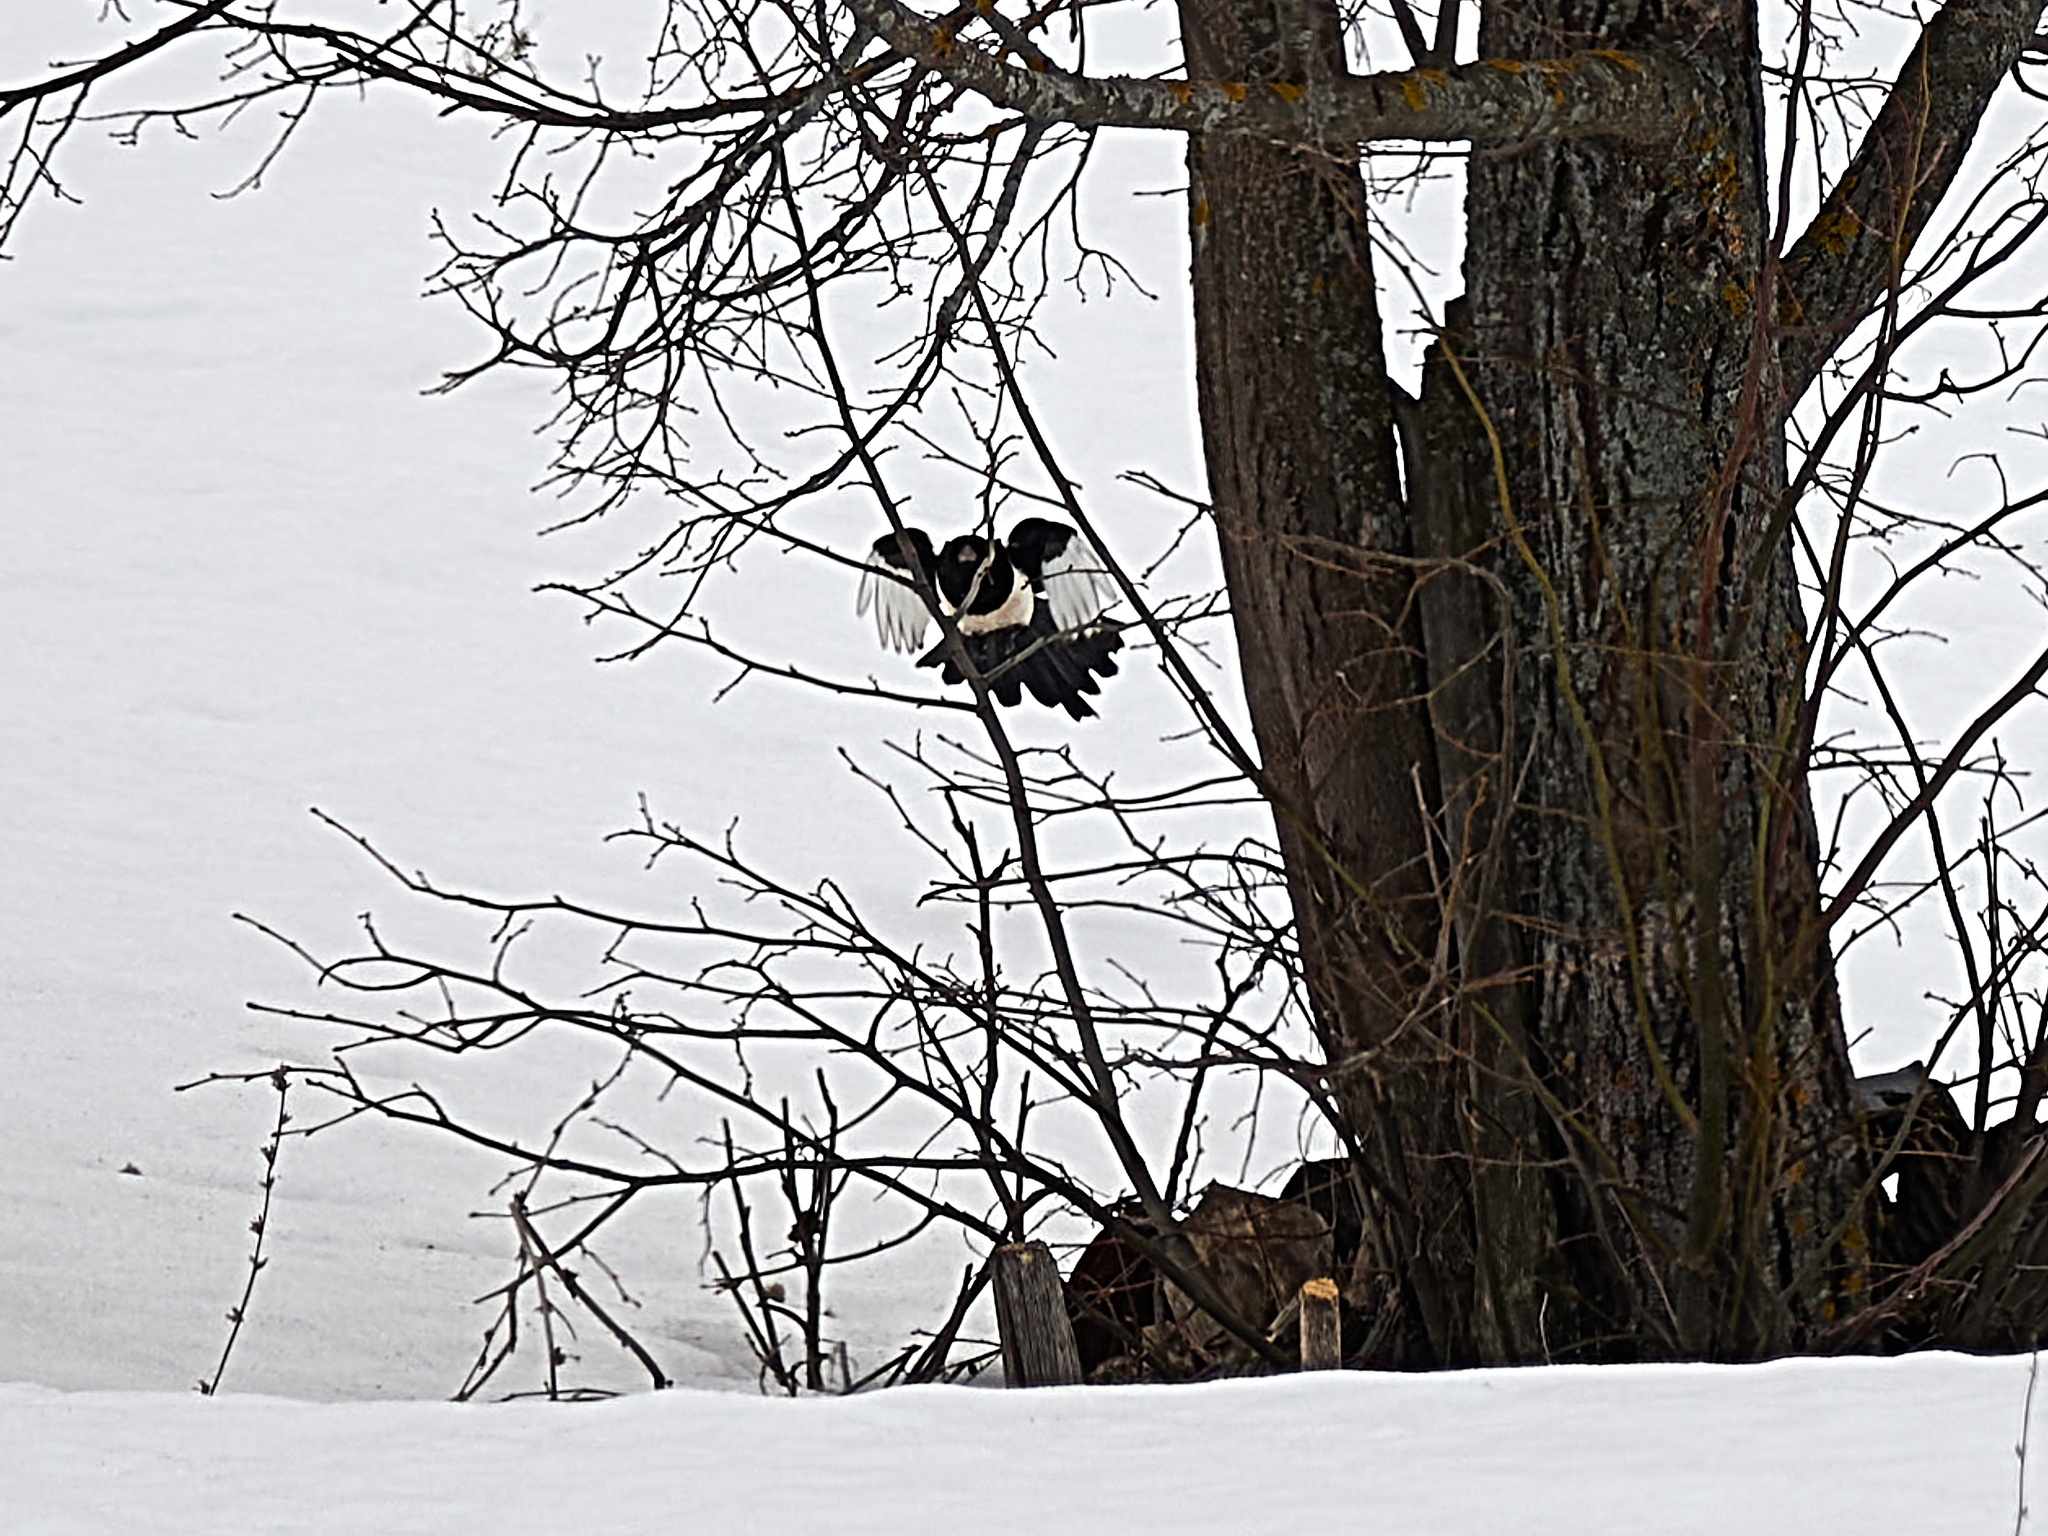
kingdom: Animalia
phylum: Chordata
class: Aves
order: Passeriformes
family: Corvidae
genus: Pica
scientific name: Pica pica
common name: Eurasian magpie
